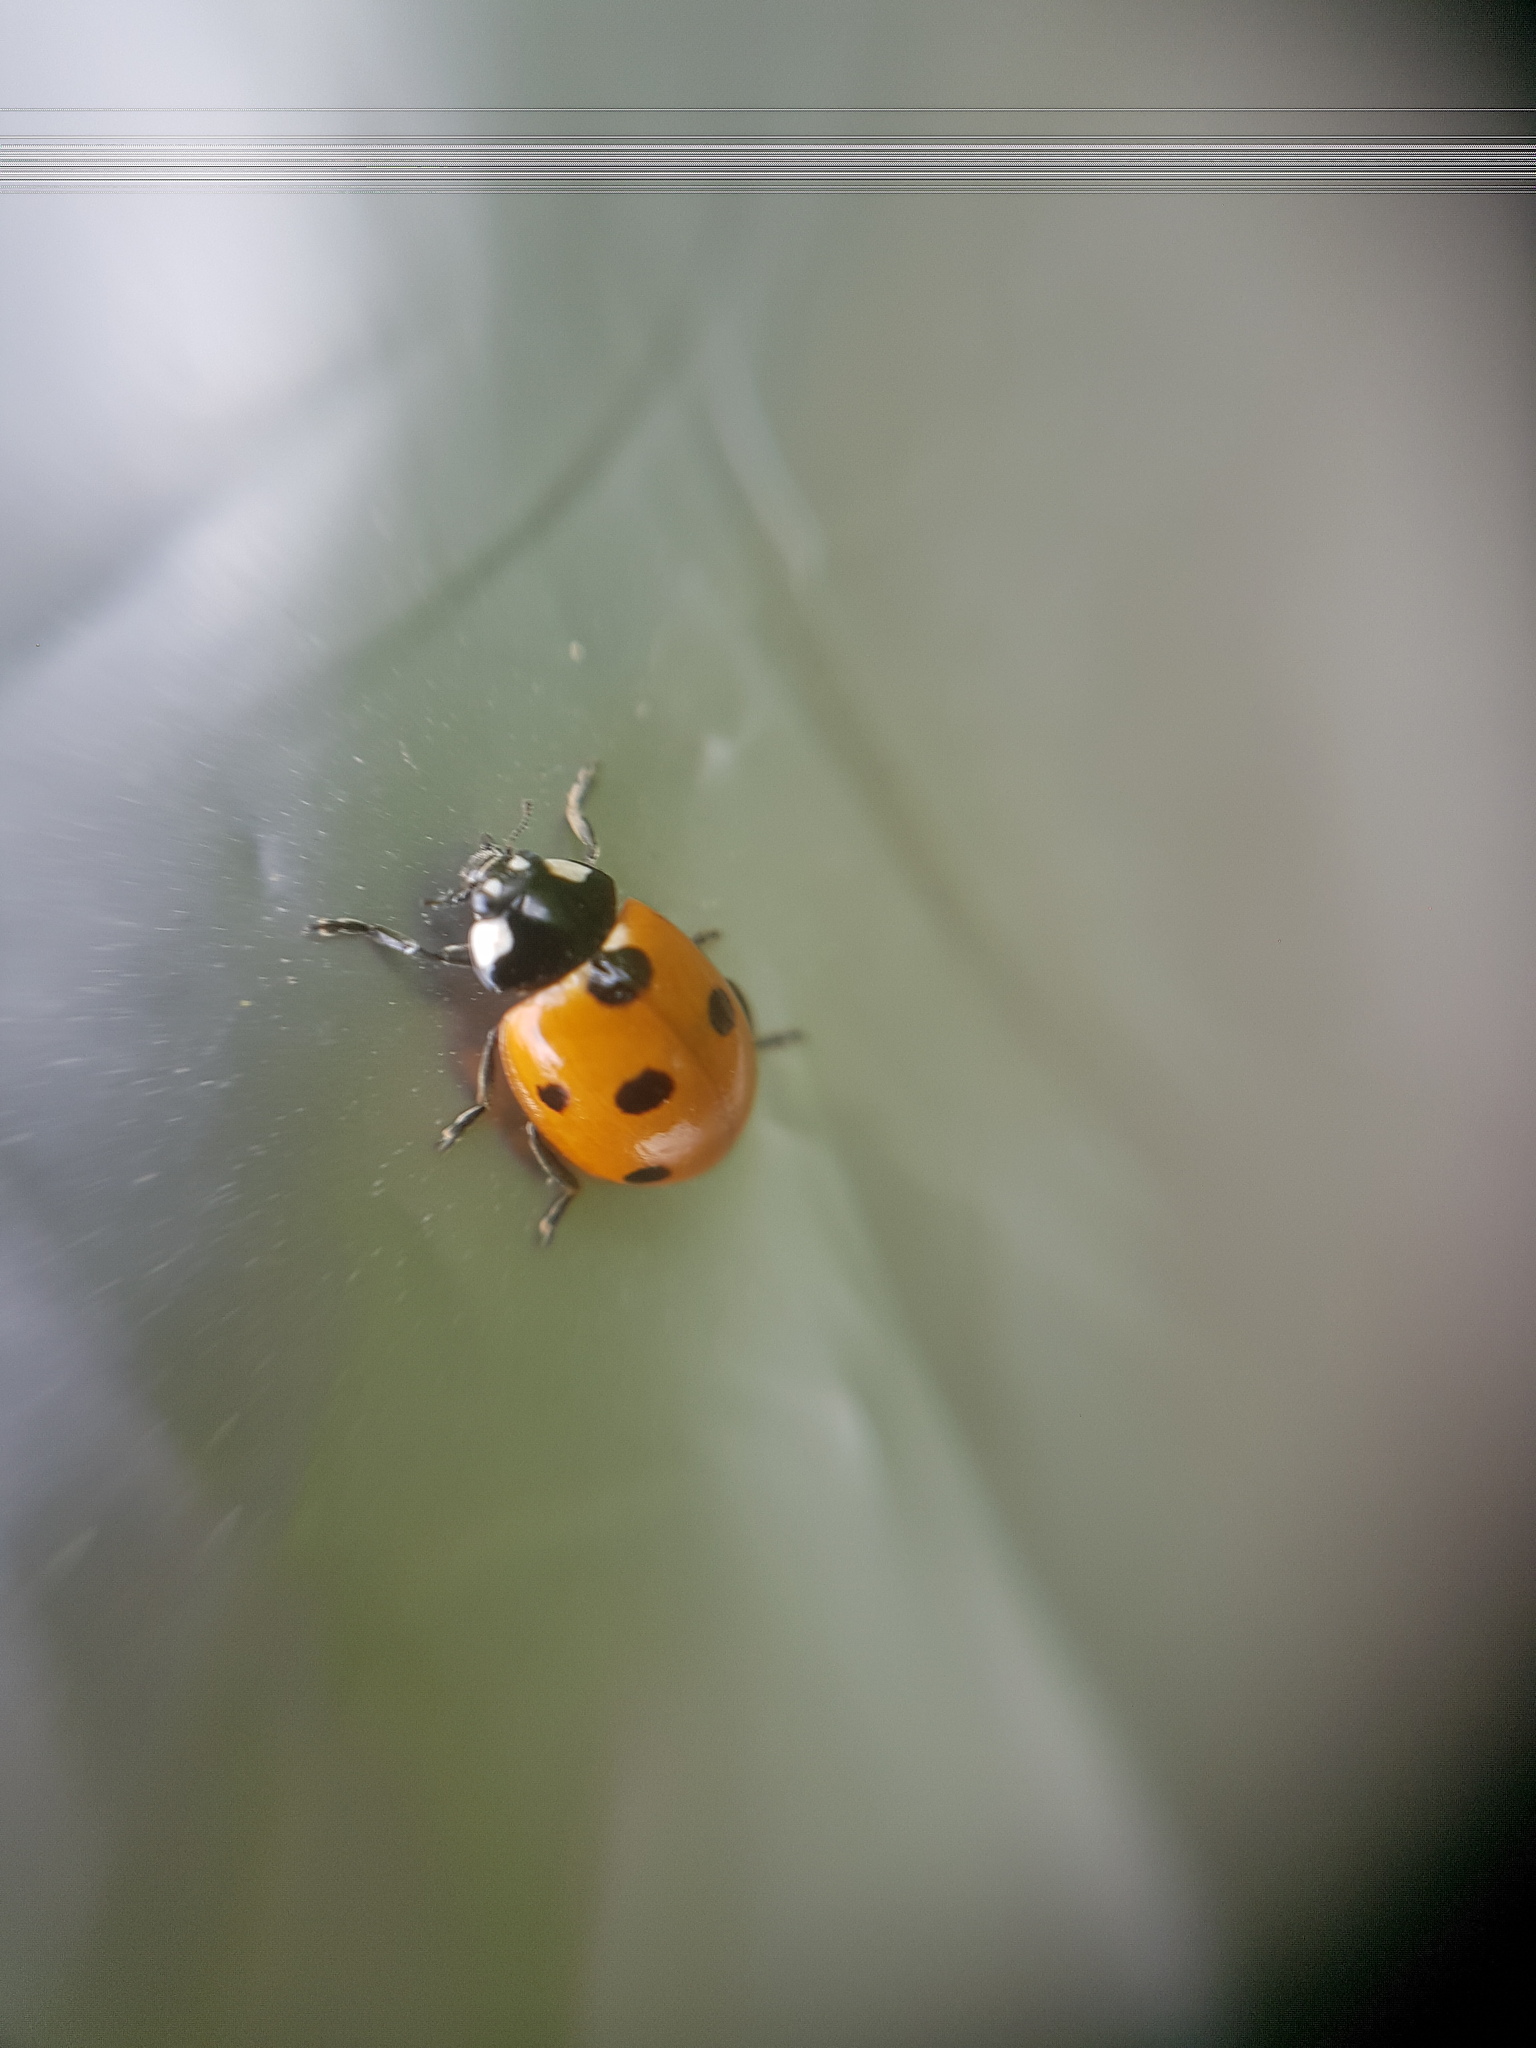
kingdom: Animalia
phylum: Arthropoda
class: Insecta
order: Coleoptera
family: Coccinellidae
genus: Coccinella
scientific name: Coccinella septempunctata
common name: Sevenspotted lady beetle
